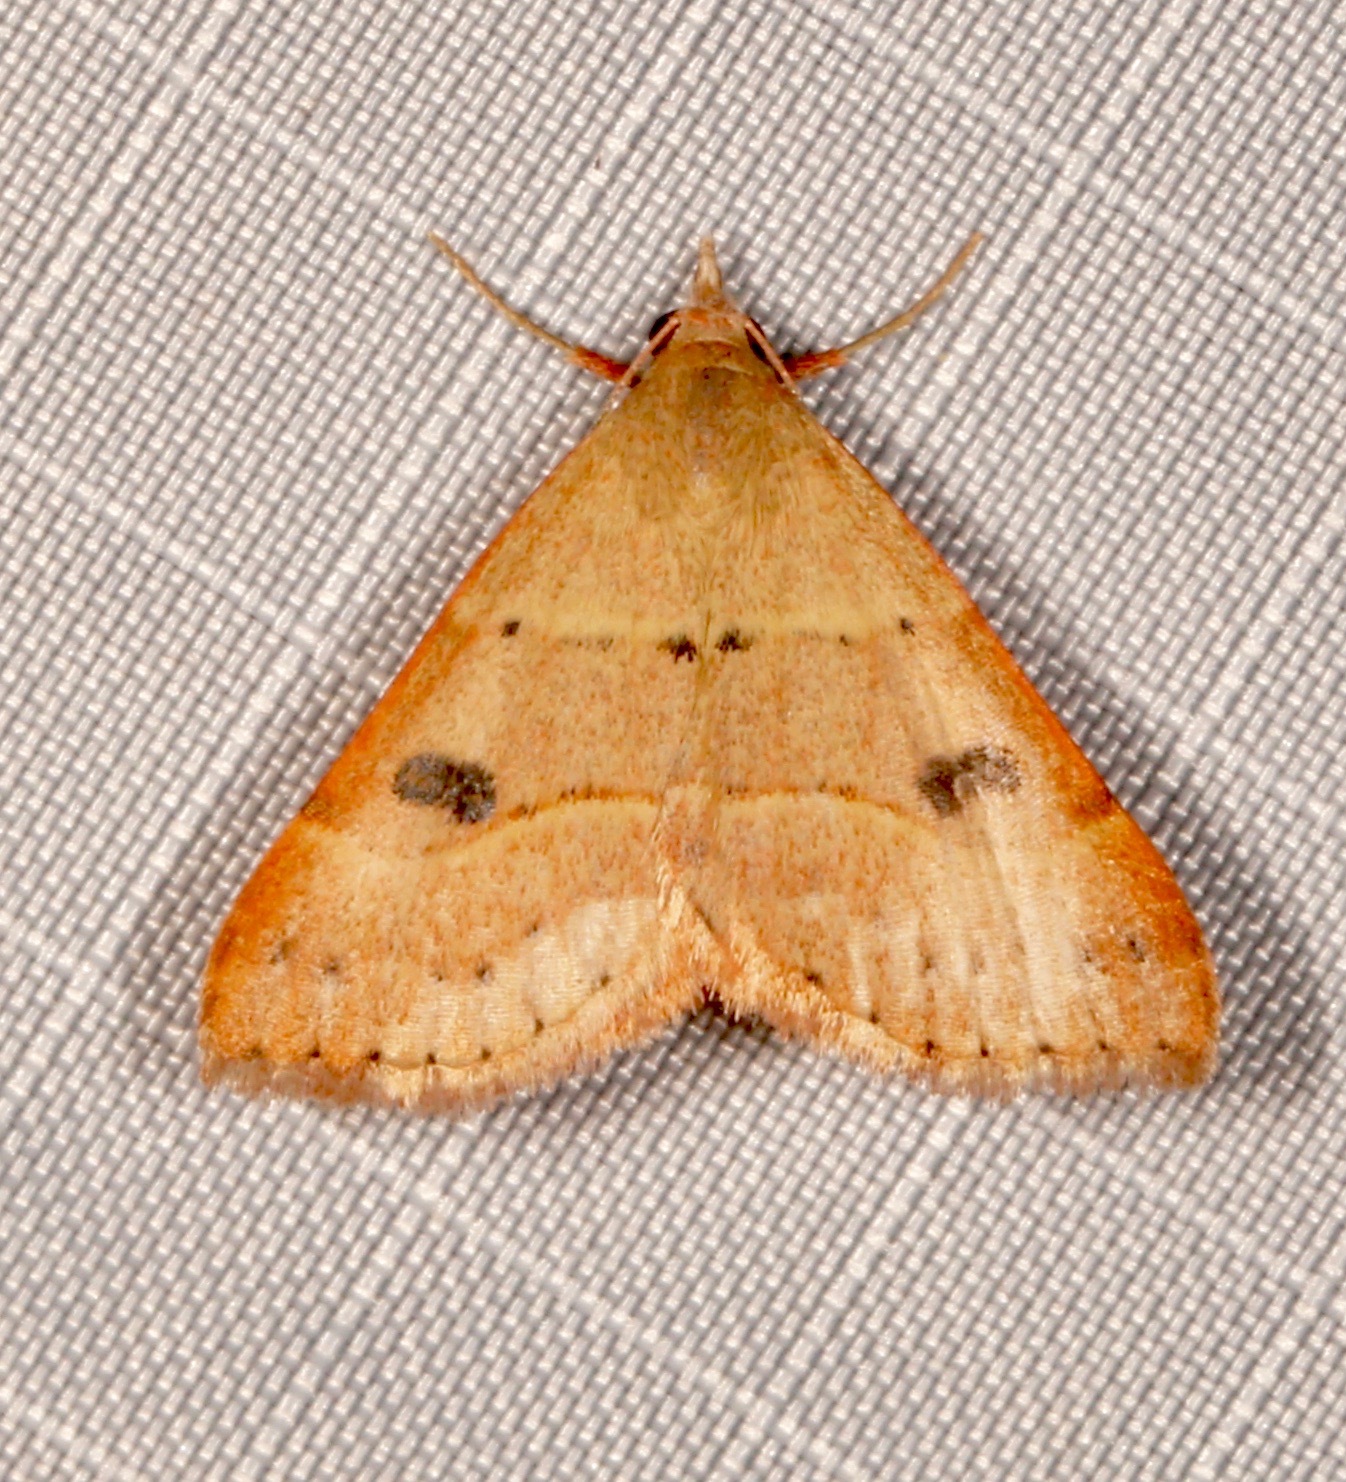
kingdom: Animalia
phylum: Arthropoda
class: Insecta
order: Lepidoptera
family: Erebidae
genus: Hemeroplanis
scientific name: Hemeroplanis habitalis
